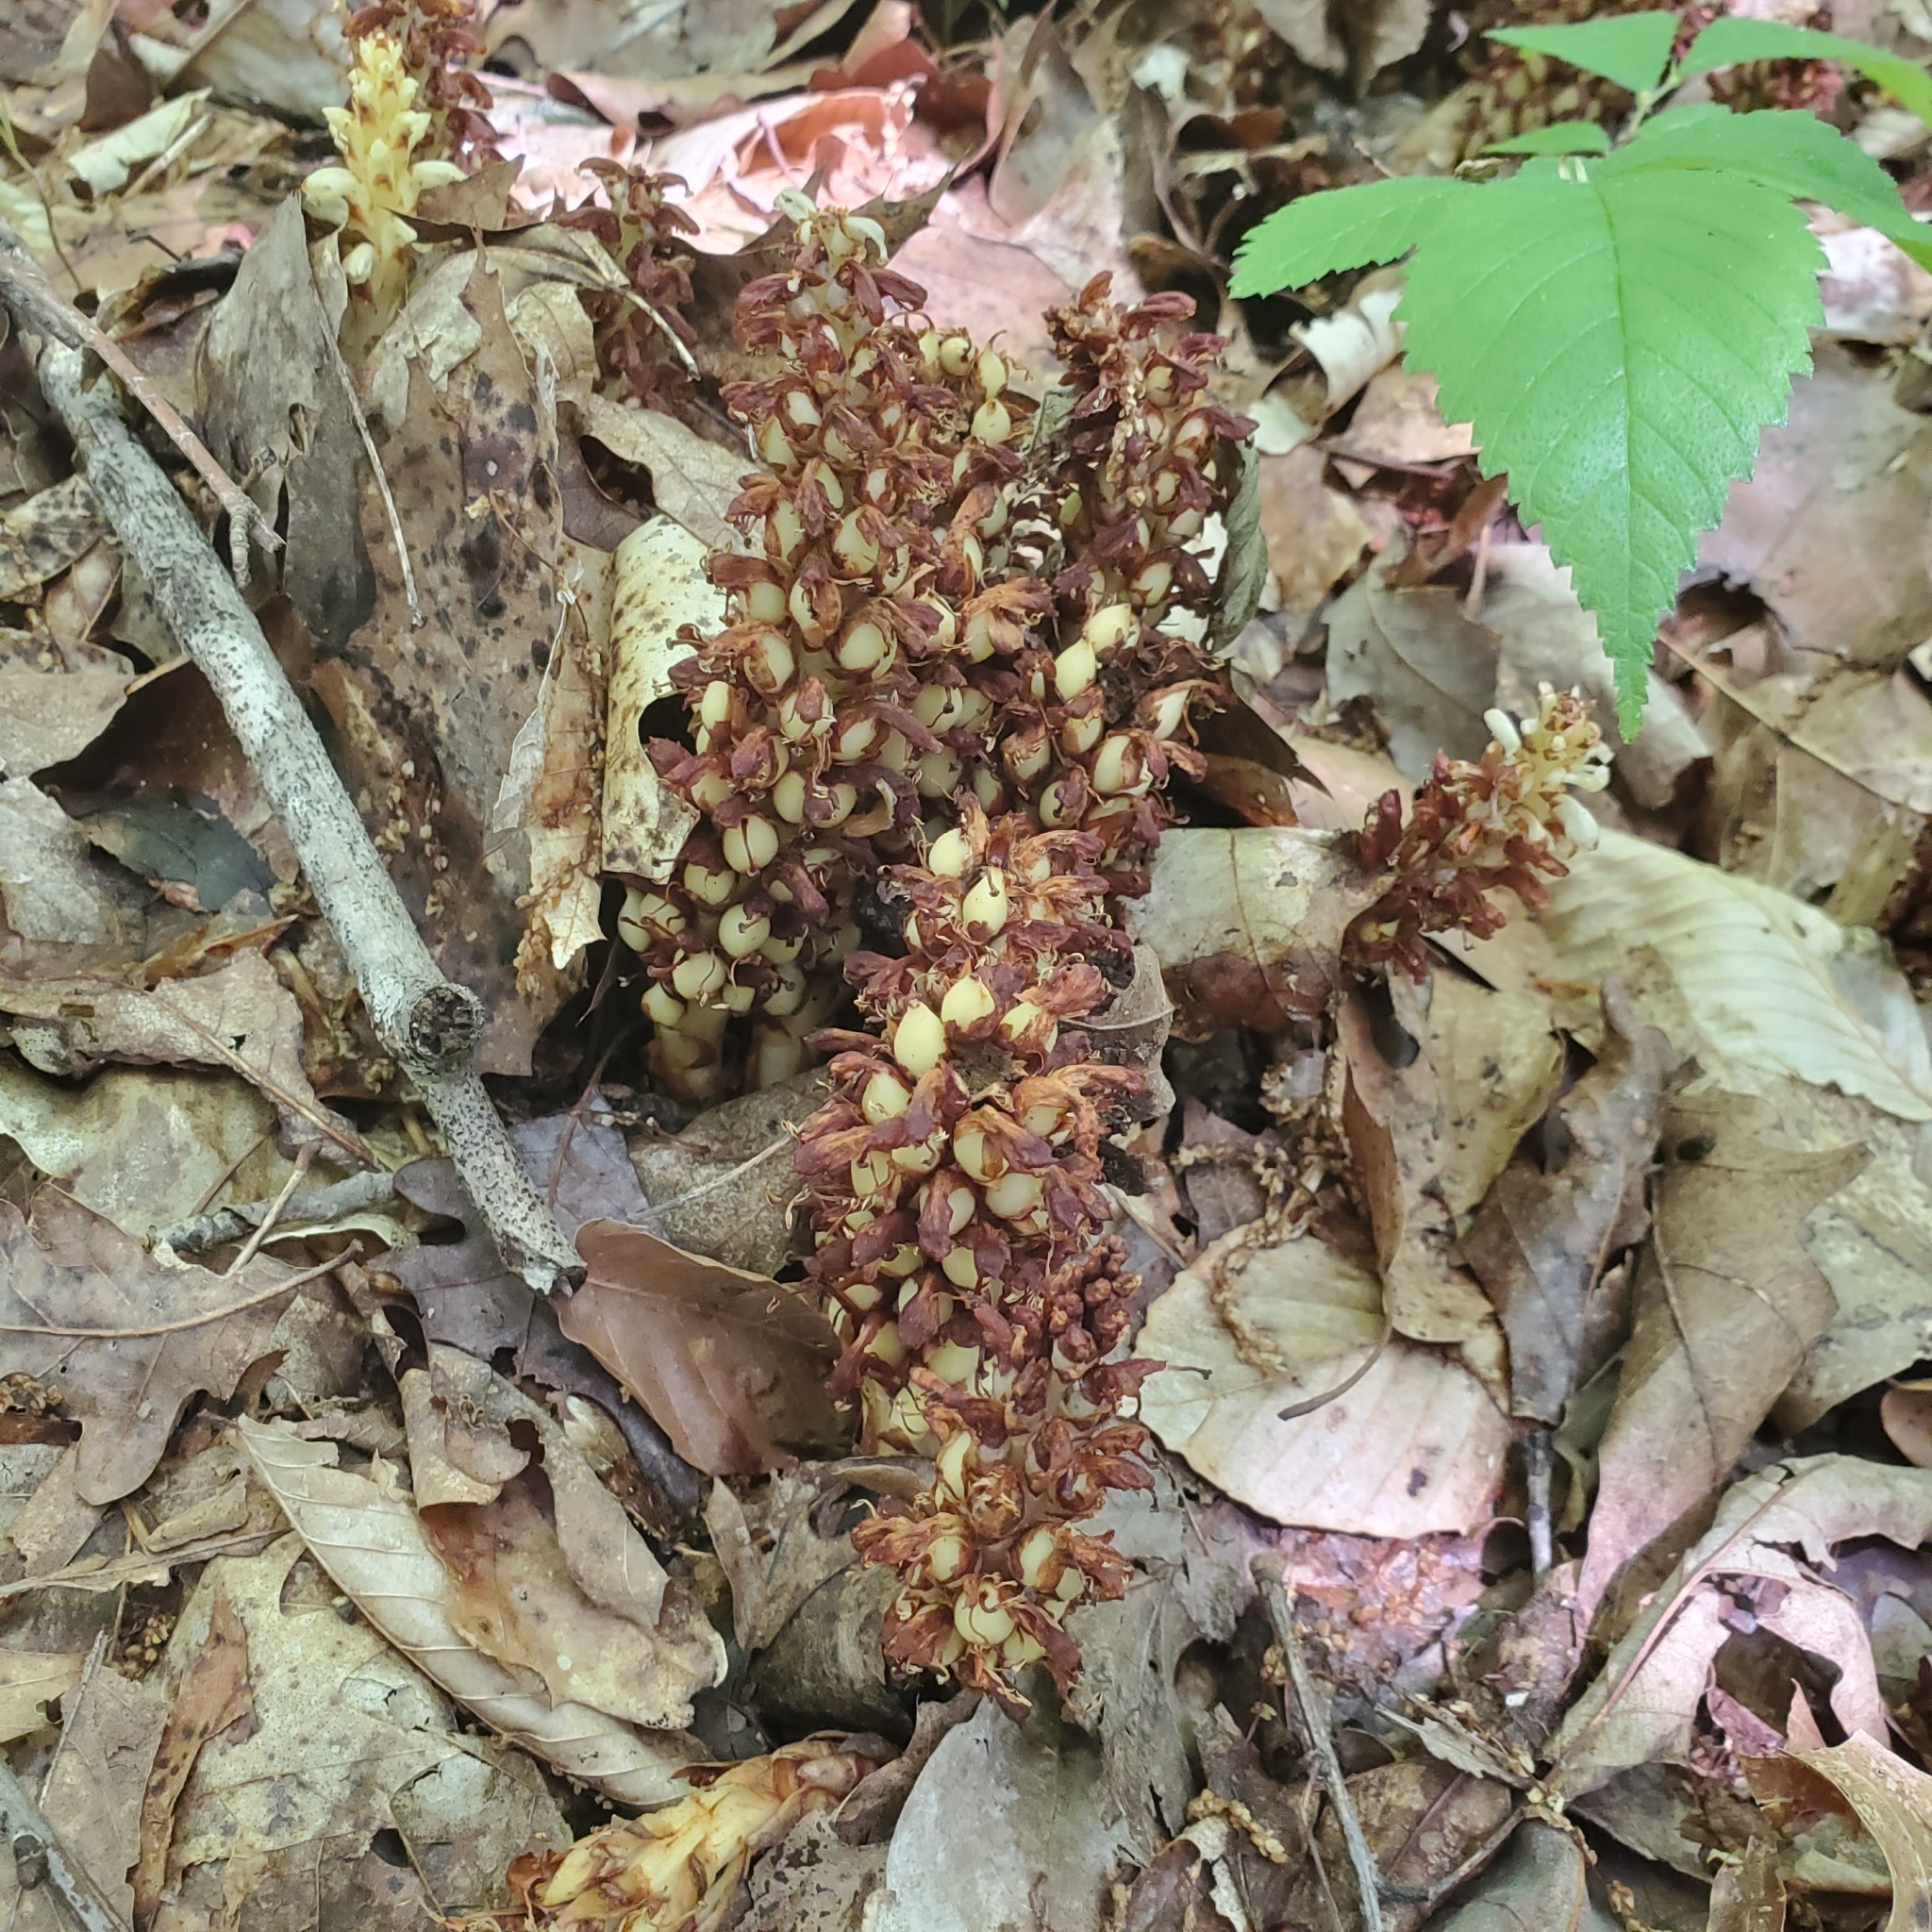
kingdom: Plantae
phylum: Tracheophyta
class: Magnoliopsida
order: Lamiales
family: Orobanchaceae
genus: Conopholis
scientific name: Conopholis americana
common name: American cancer-root
